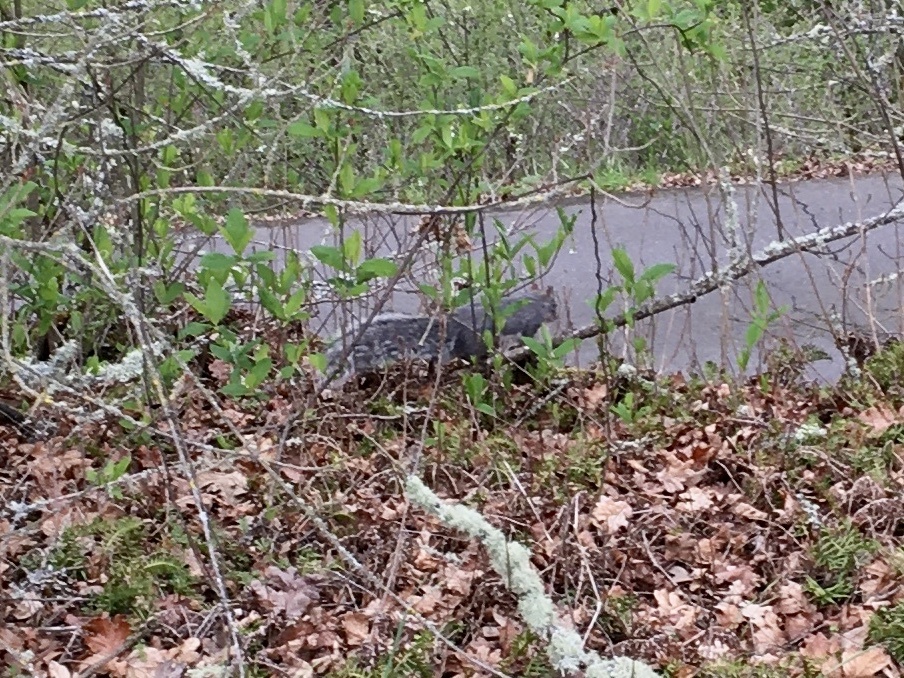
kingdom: Animalia
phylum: Chordata
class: Mammalia
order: Rodentia
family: Sciuridae
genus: Sciurus
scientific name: Sciurus griseus
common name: Western gray squirrel
